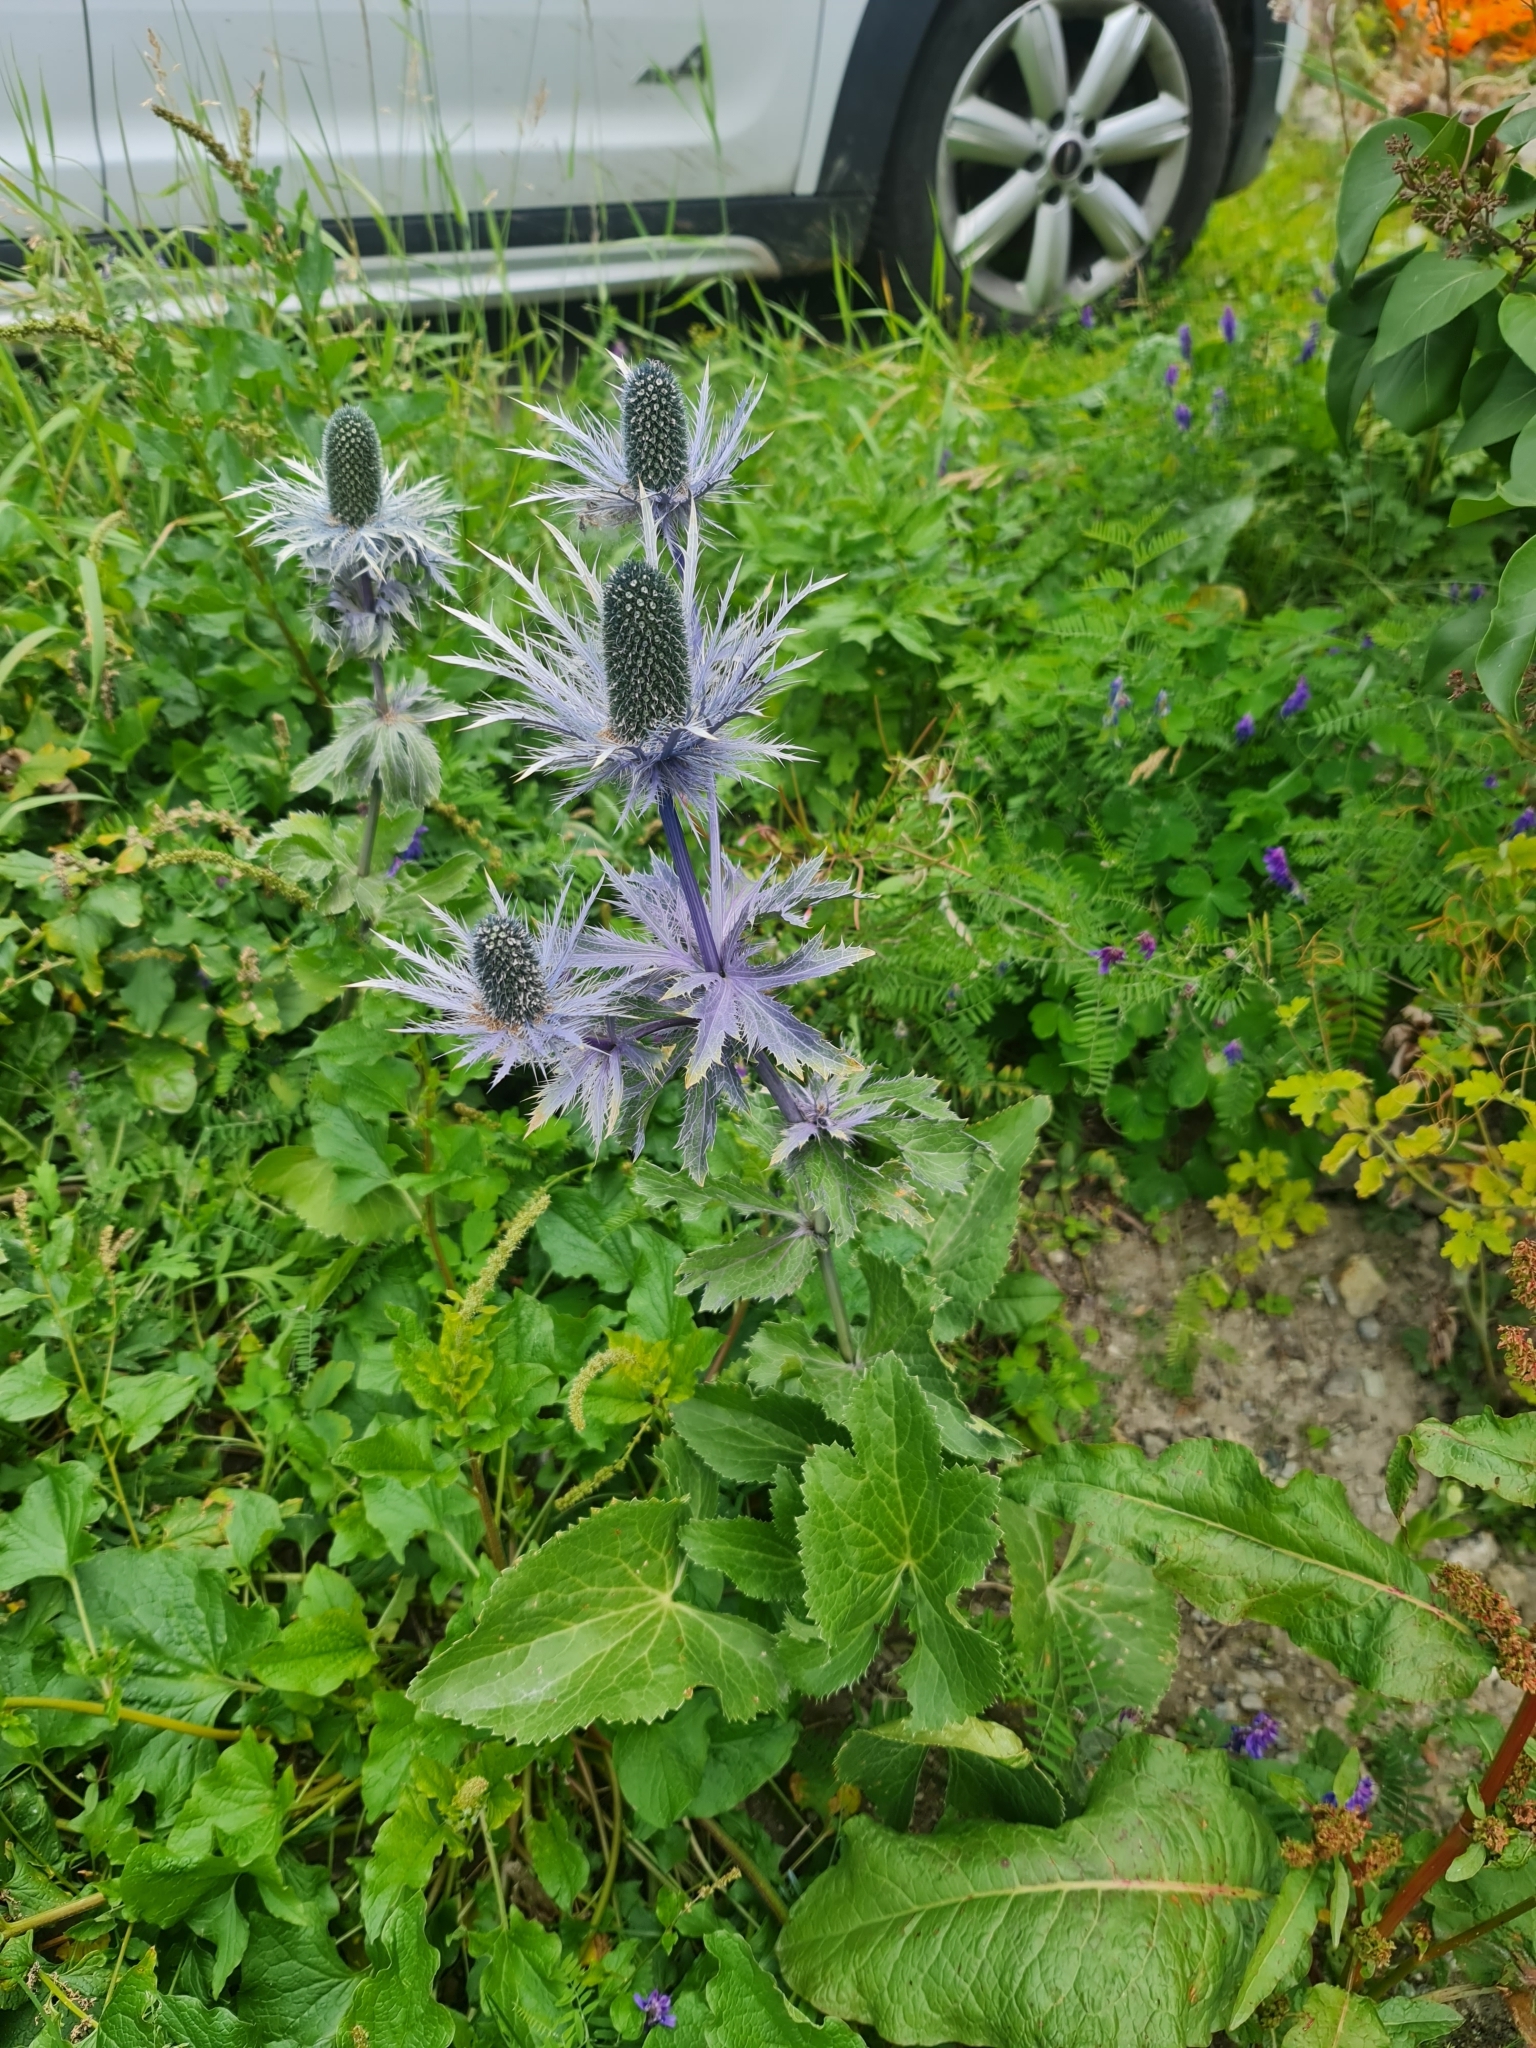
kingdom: Plantae
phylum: Tracheophyta
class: Magnoliopsida
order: Apiales
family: Apiaceae
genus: Eryngium
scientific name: Eryngium alpinum
